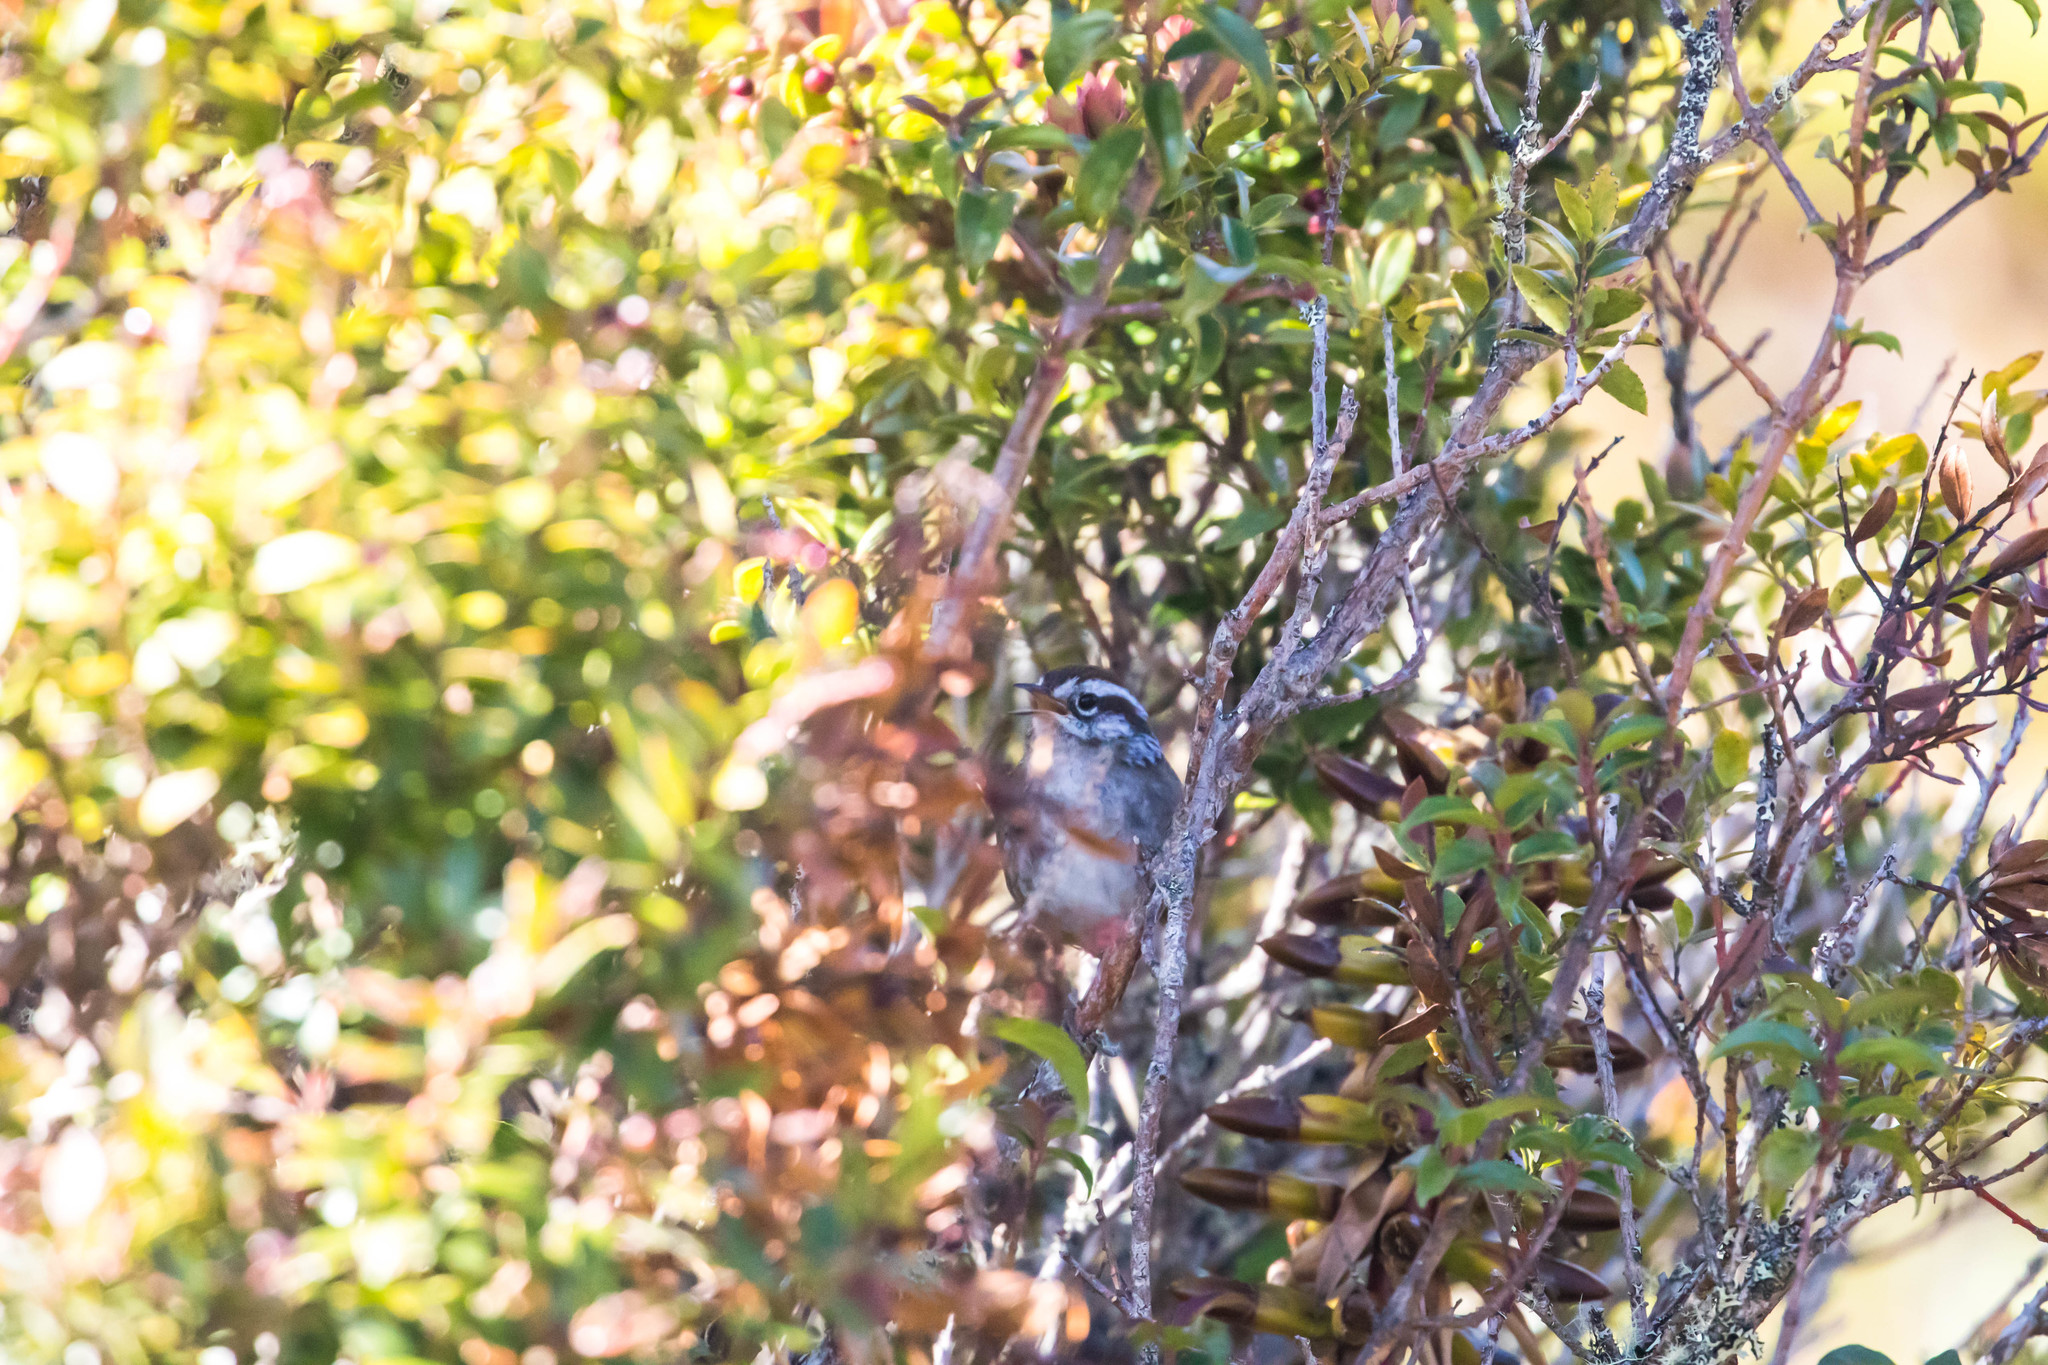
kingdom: Animalia
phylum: Chordata
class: Aves
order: Passeriformes
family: Troglodytidae
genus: Thryorchilus
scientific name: Thryorchilus browni
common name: Timberline wren
